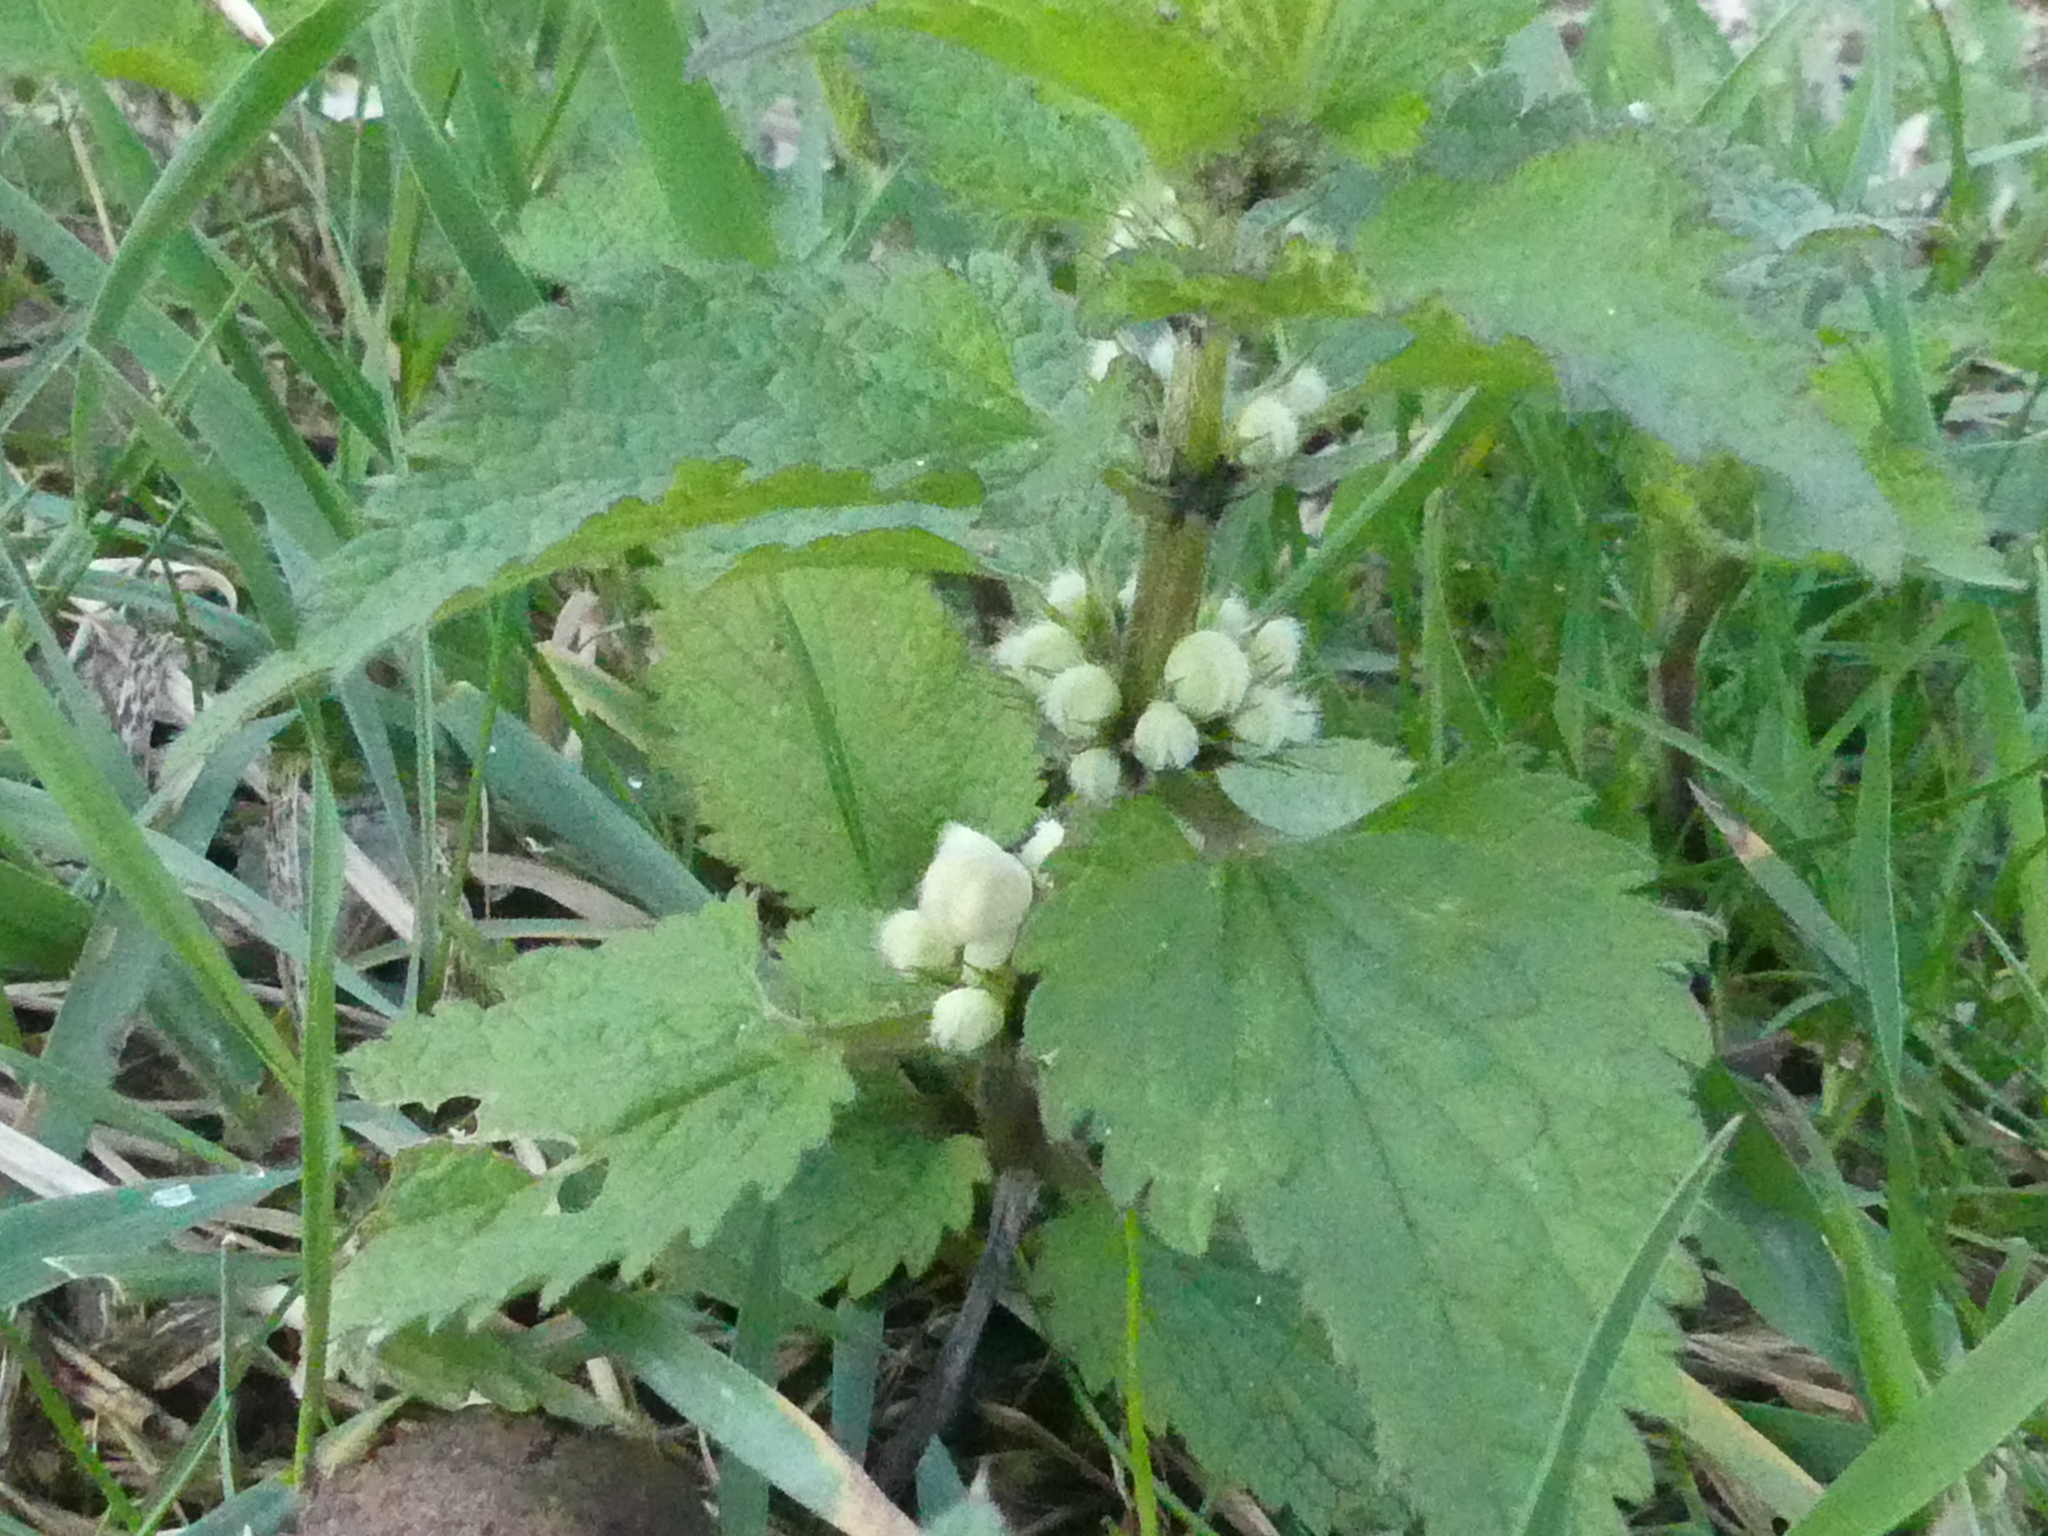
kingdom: Plantae
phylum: Tracheophyta
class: Magnoliopsida
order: Lamiales
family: Lamiaceae
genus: Lamium
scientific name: Lamium album
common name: White dead-nettle
